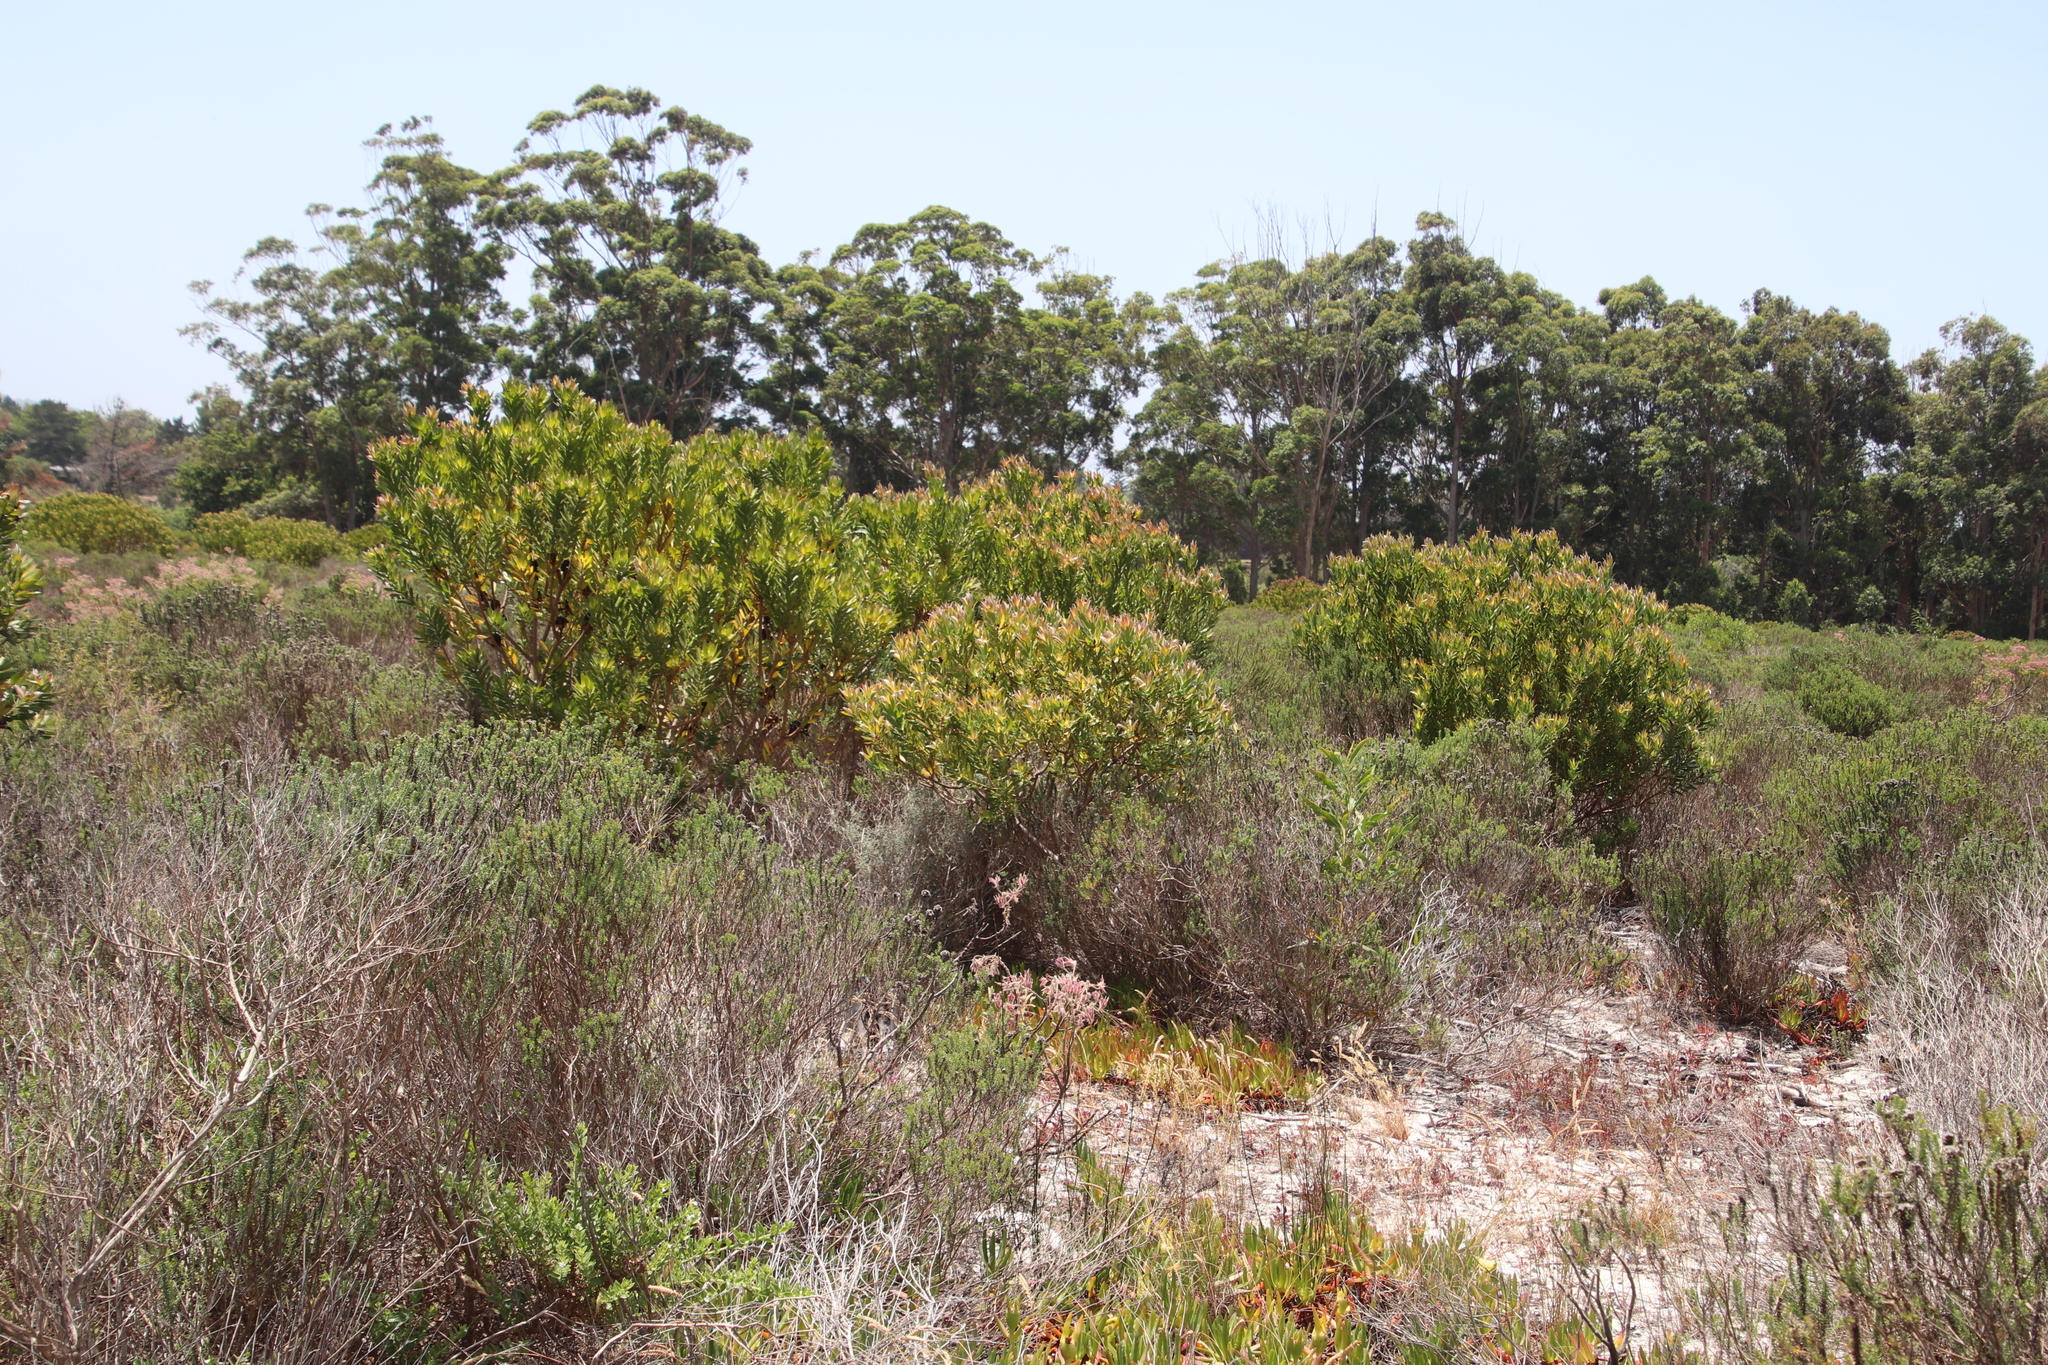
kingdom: Plantae
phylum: Tracheophyta
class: Magnoliopsida
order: Proteales
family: Proteaceae
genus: Leucadendron
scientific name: Leucadendron laureolum
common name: Golden sunshinebush
